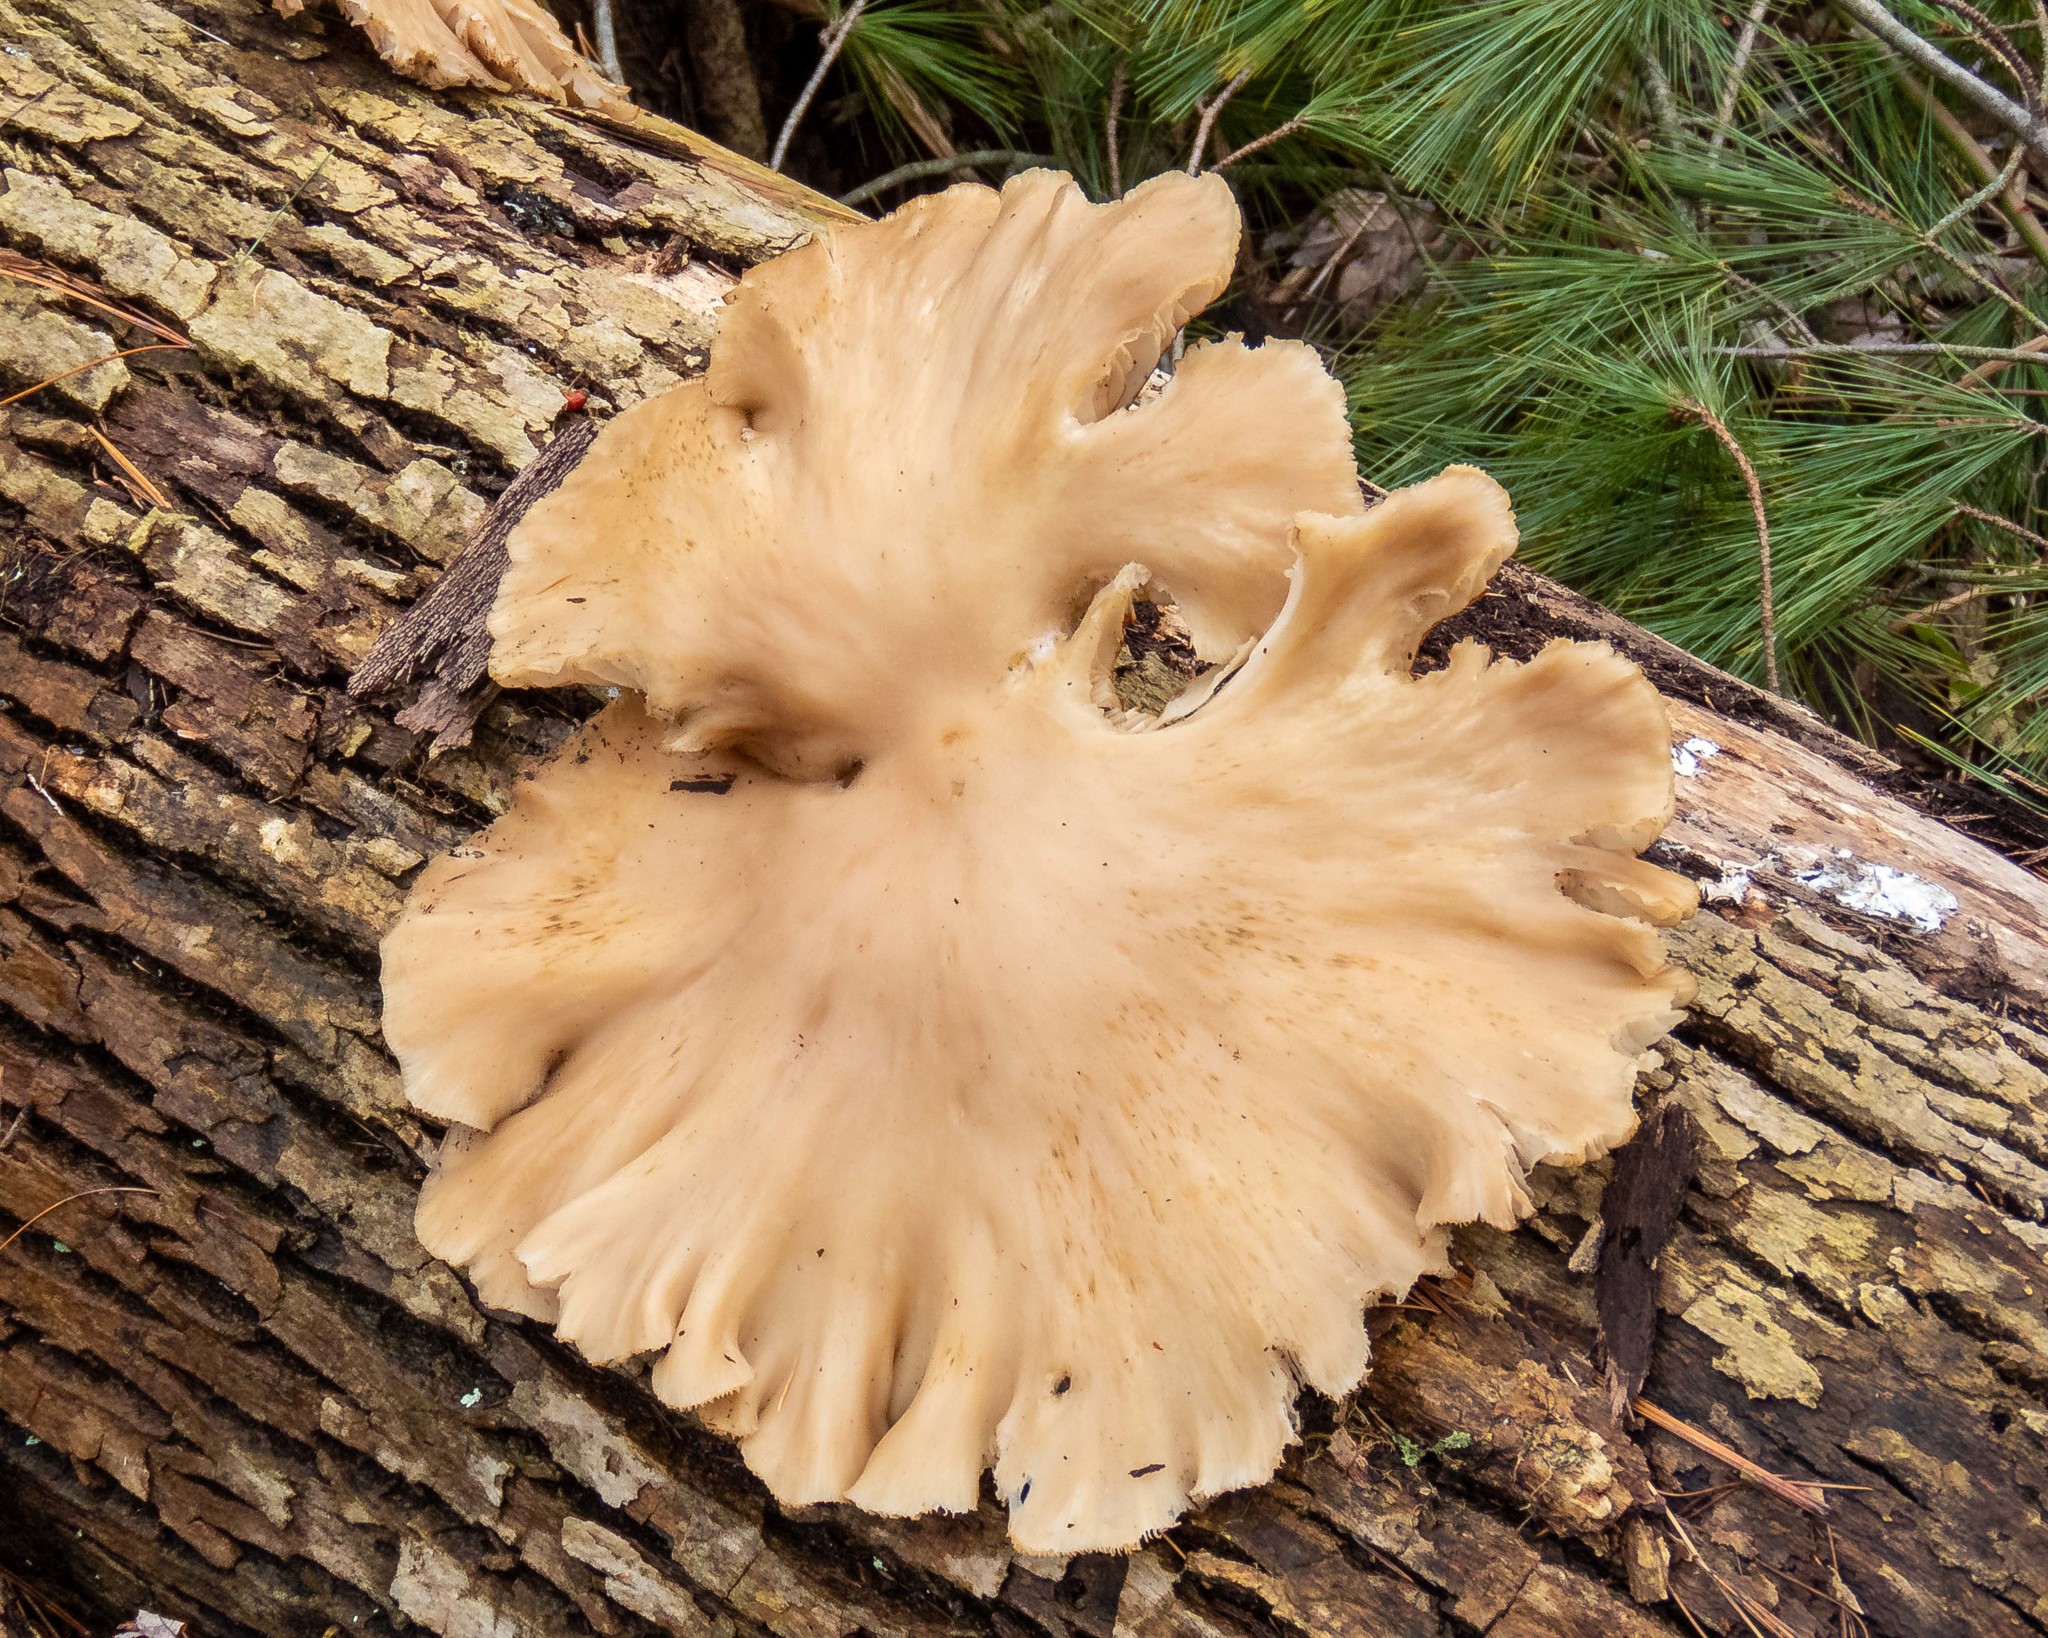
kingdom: Fungi
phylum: Basidiomycota
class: Agaricomycetes
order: Agaricales
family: Pleurotaceae
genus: Pleurotus
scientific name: Pleurotus ostreatus
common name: Oyster mushroom
